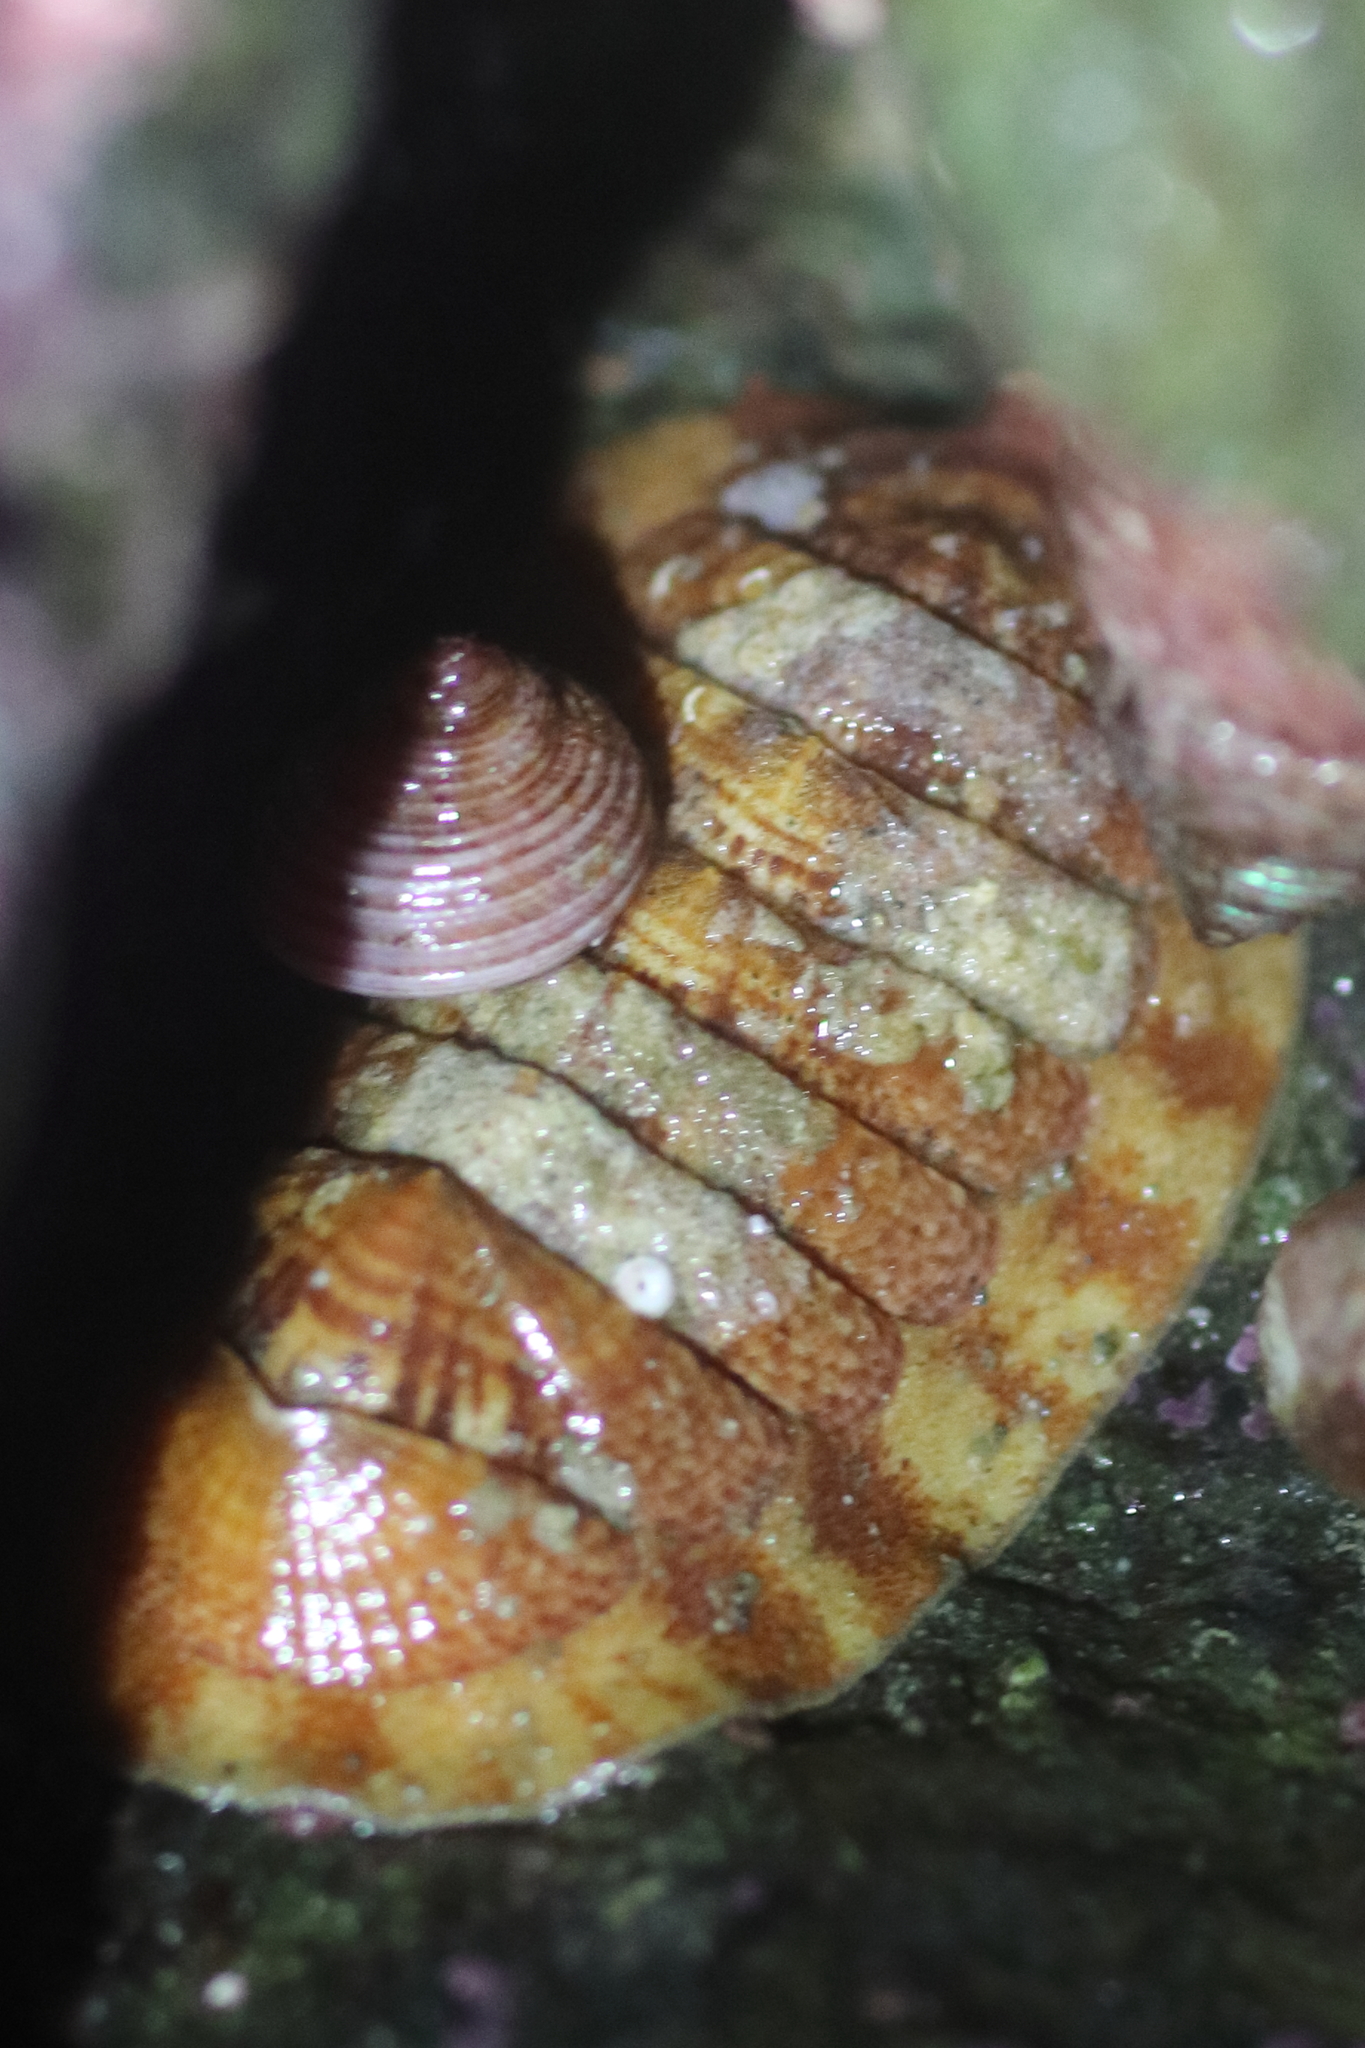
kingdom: Animalia
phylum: Mollusca
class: Polyplacophora
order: Chitonida
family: Ischnochitonidae
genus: Tripoplax
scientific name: Tripoplax trifida
